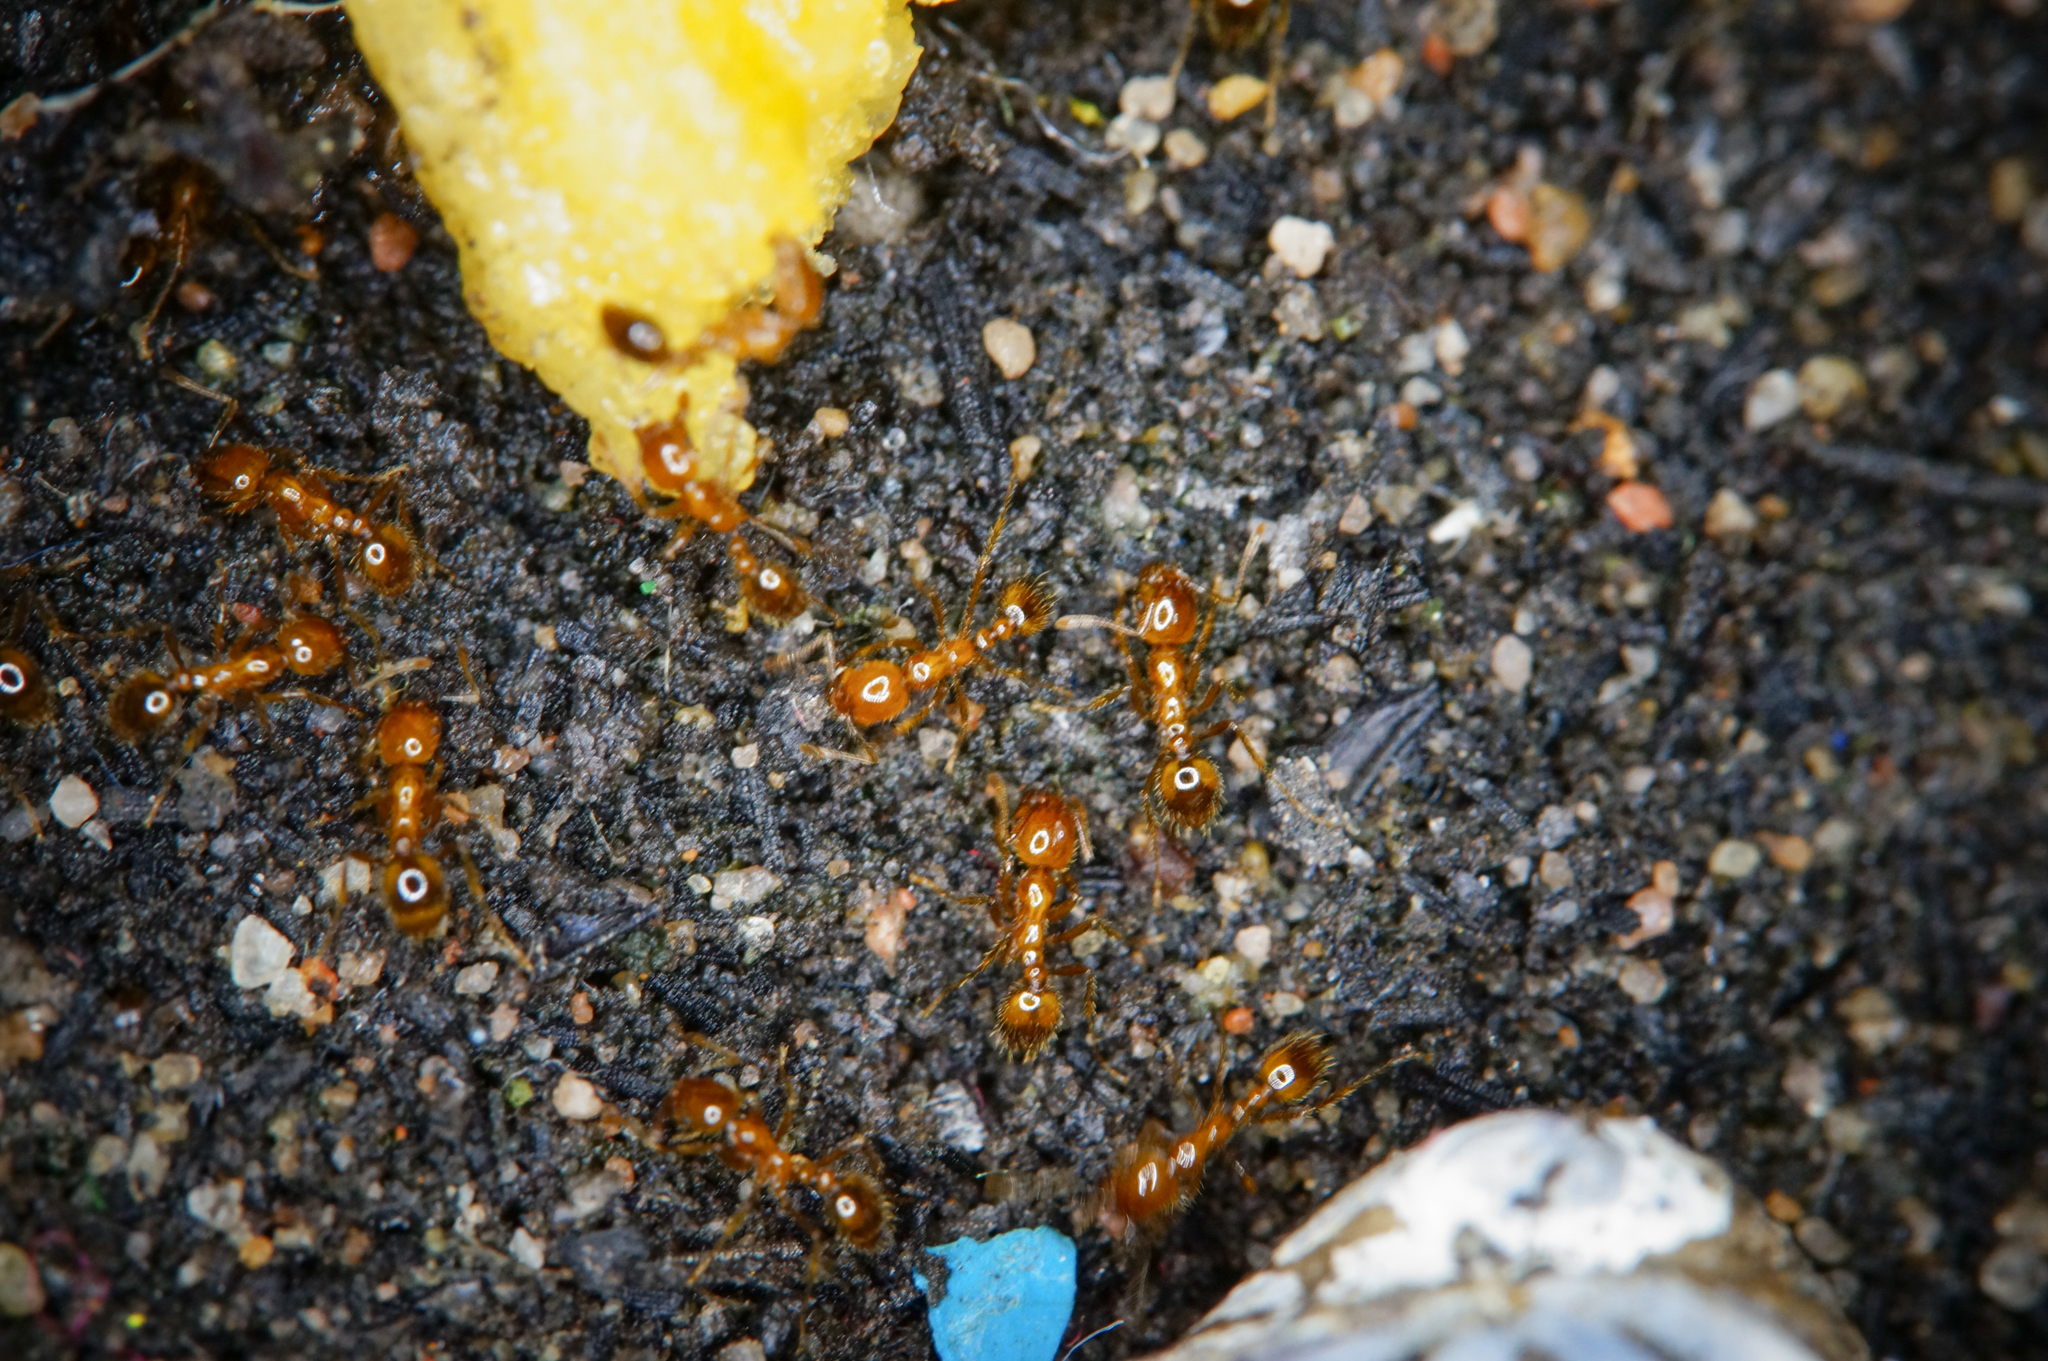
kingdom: Animalia
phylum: Arthropoda
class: Insecta
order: Hymenoptera
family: Formicidae
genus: Solenopsis
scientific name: Solenopsis geminata
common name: Tropical fire ant
